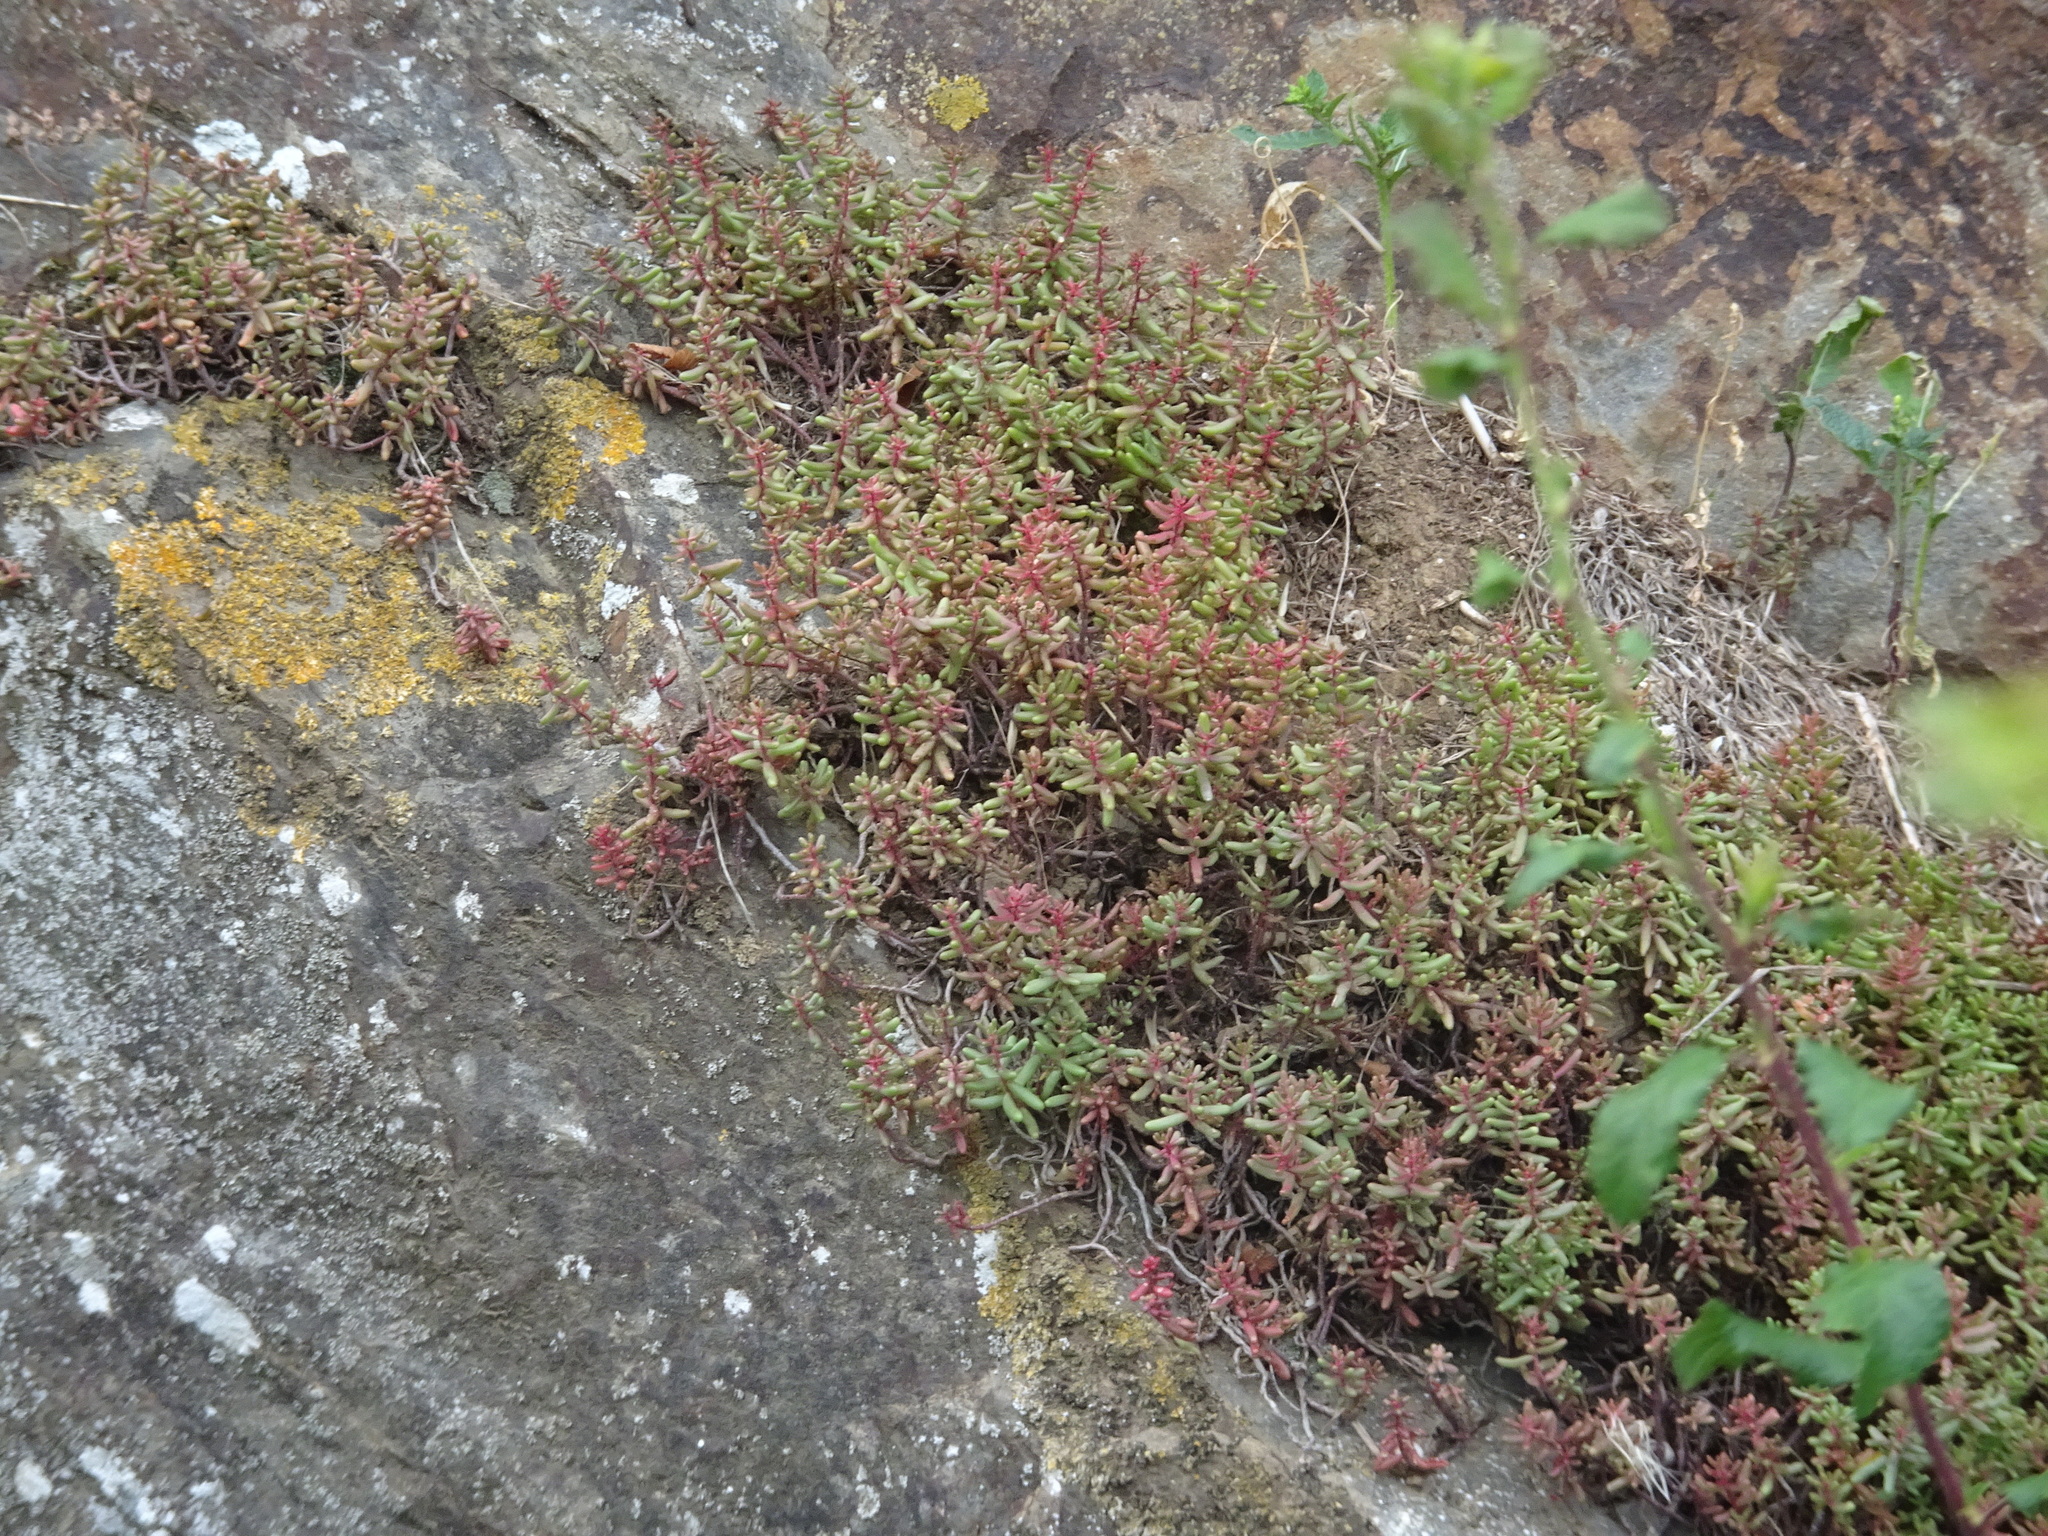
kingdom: Plantae
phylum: Tracheophyta
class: Magnoliopsida
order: Saxifragales
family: Crassulaceae
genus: Sedum
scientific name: Sedum album
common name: White stonecrop
